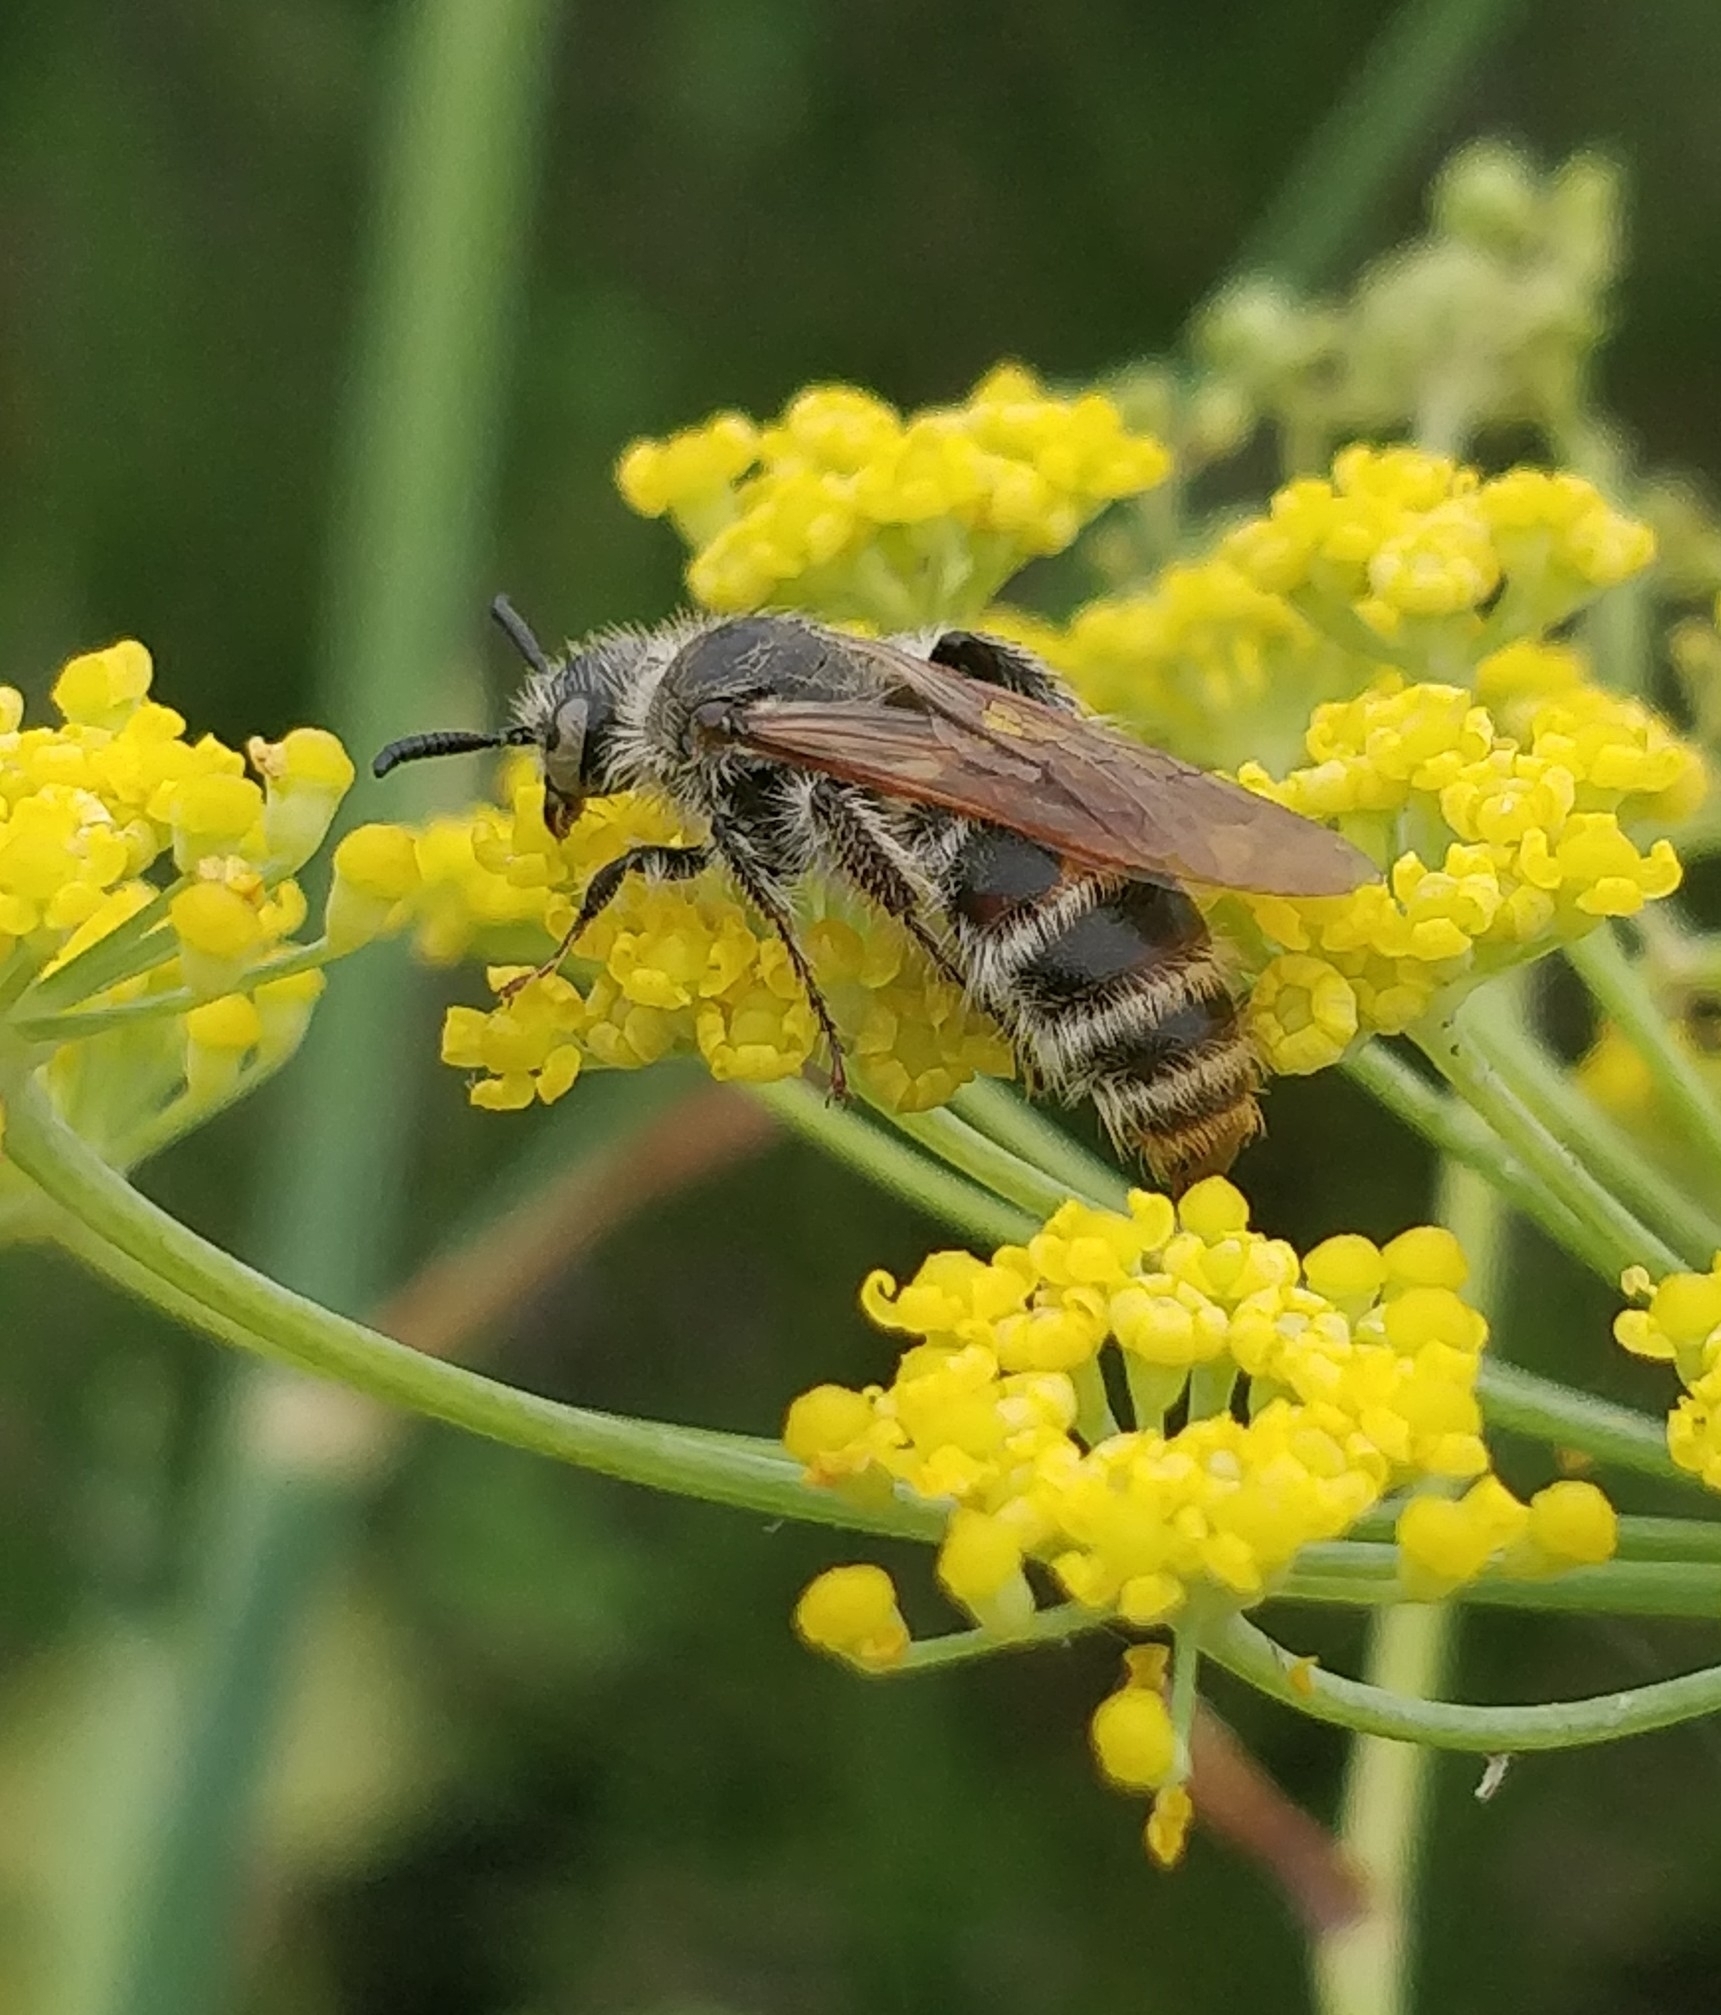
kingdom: Animalia
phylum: Arthropoda
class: Insecta
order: Hymenoptera
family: Scoliidae
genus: Micromeriella
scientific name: Micromeriella hyalina
